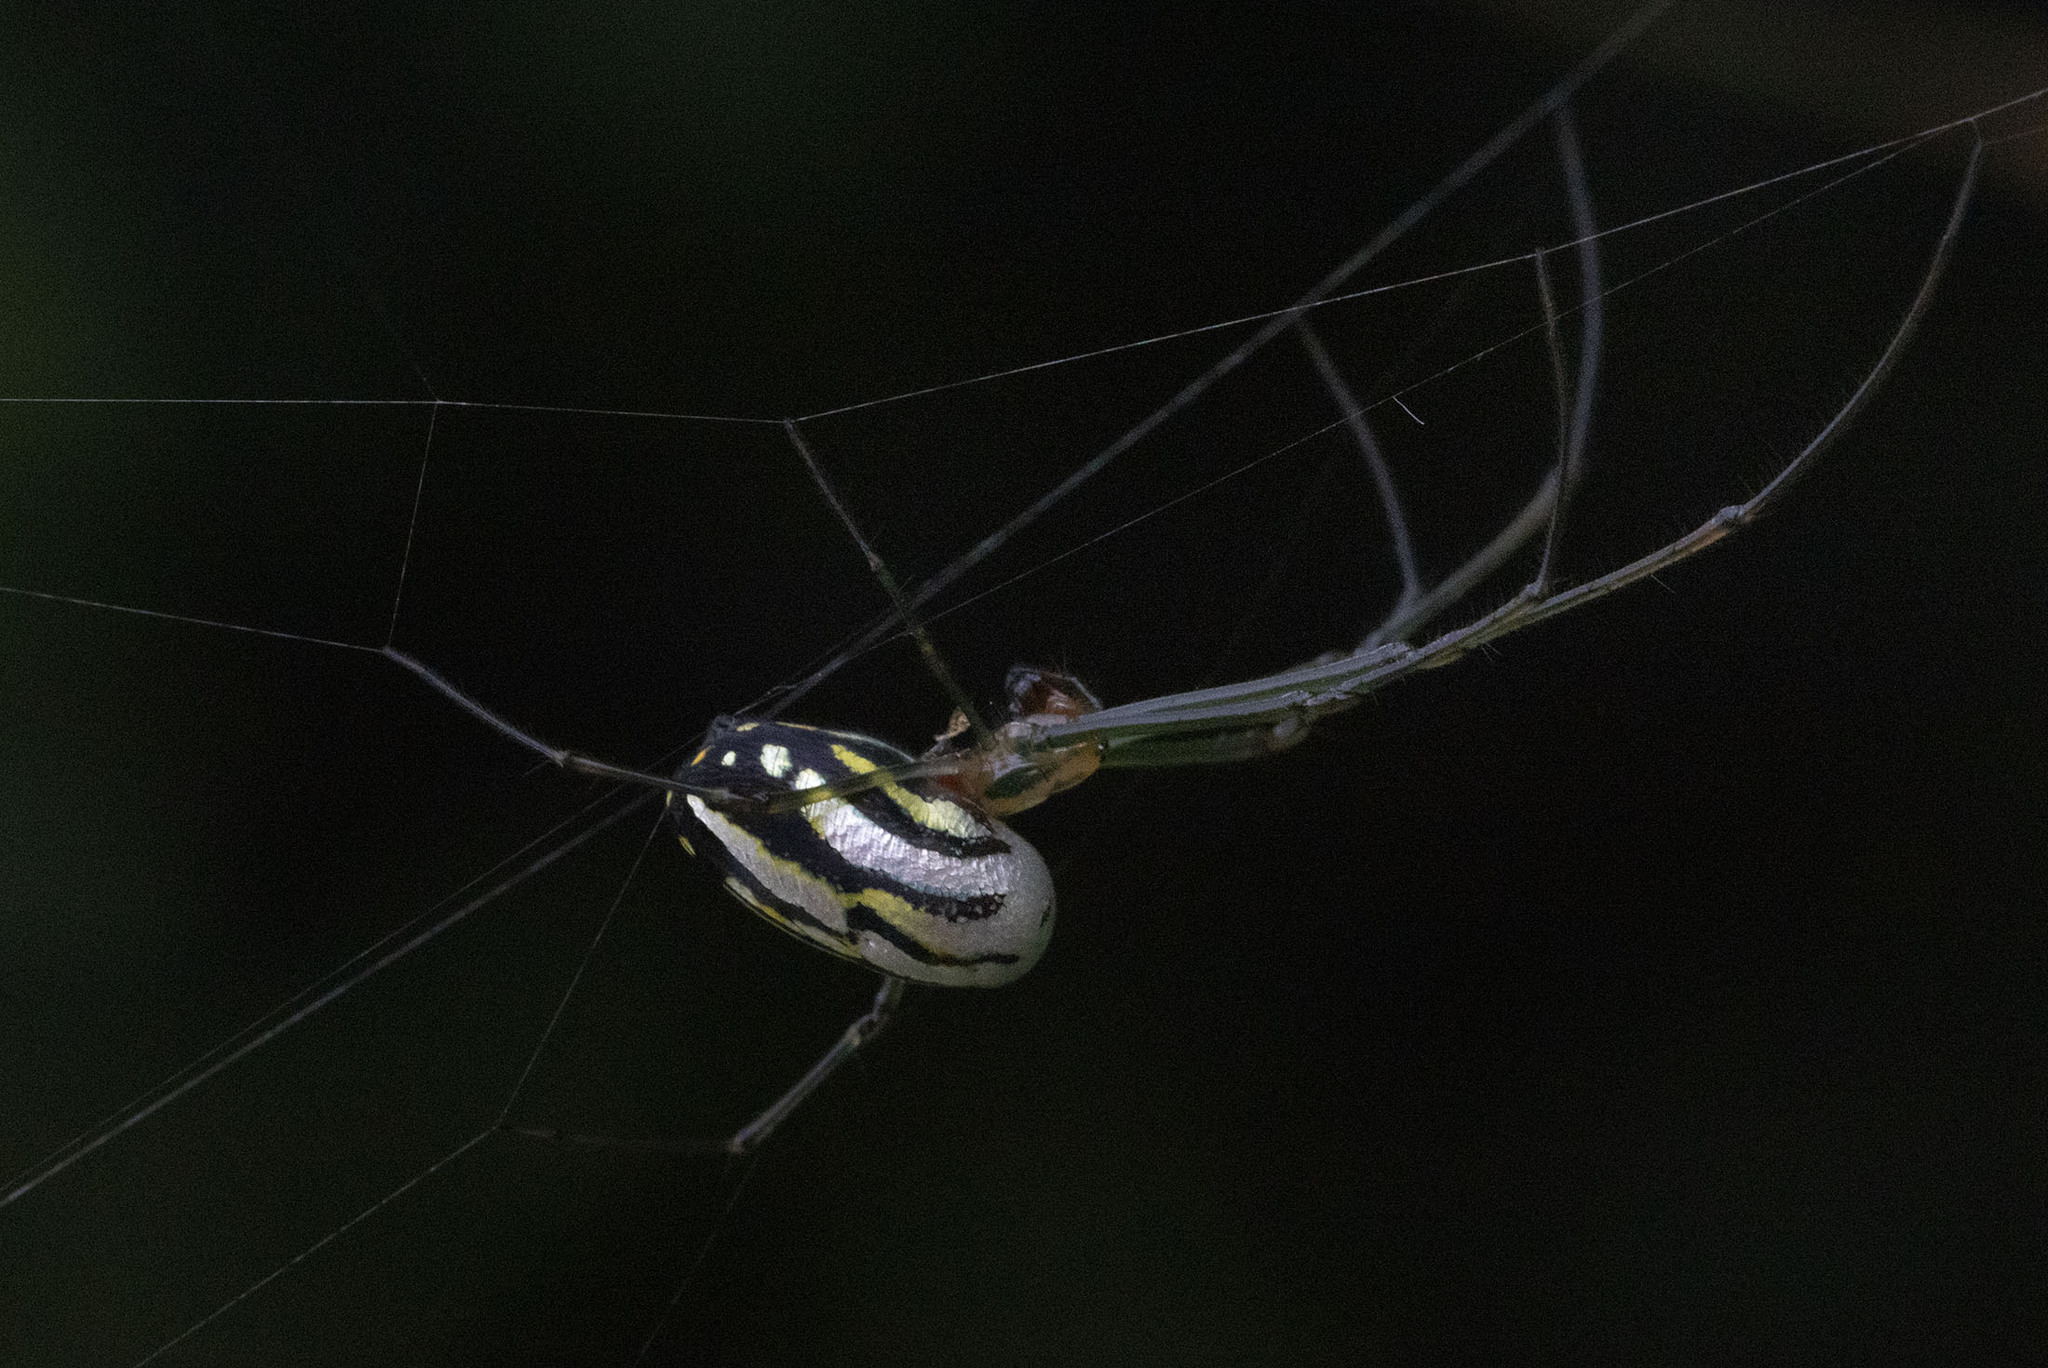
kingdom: Animalia
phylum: Arthropoda
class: Arachnida
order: Araneae
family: Tetragnathidae
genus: Leucauge
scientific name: Leucauge argyra
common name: Longjawed orb weavers
